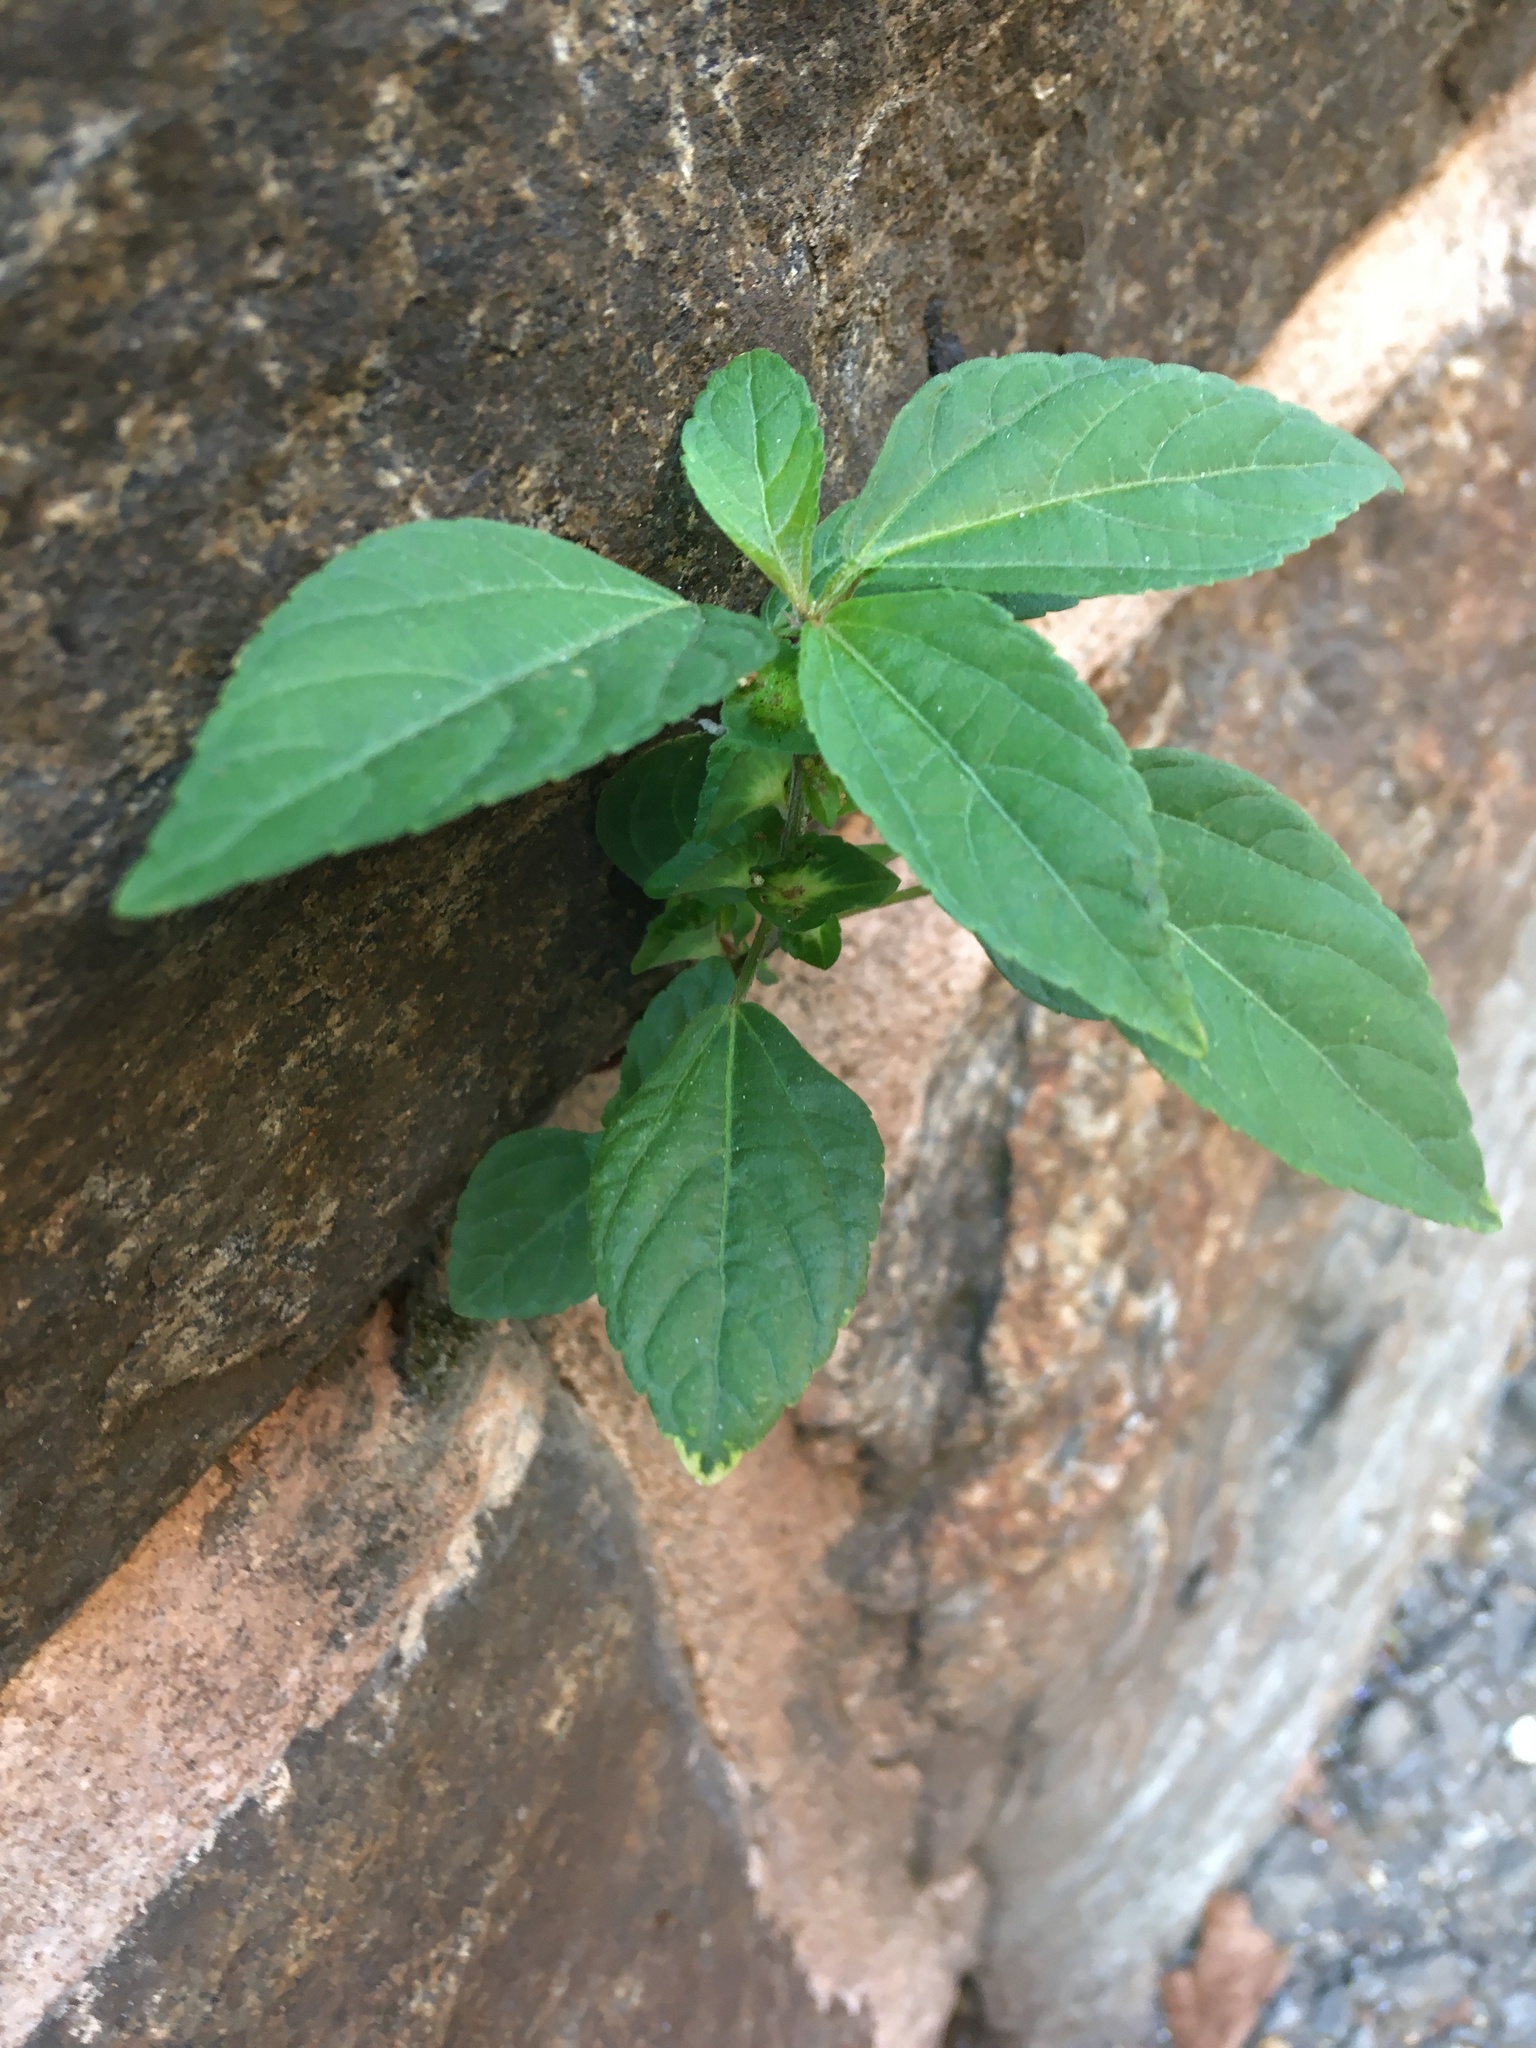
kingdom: Plantae
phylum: Tracheophyta
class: Magnoliopsida
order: Malpighiales
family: Euphorbiaceae
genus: Acalypha
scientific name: Acalypha australis
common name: Asian copperleaf
